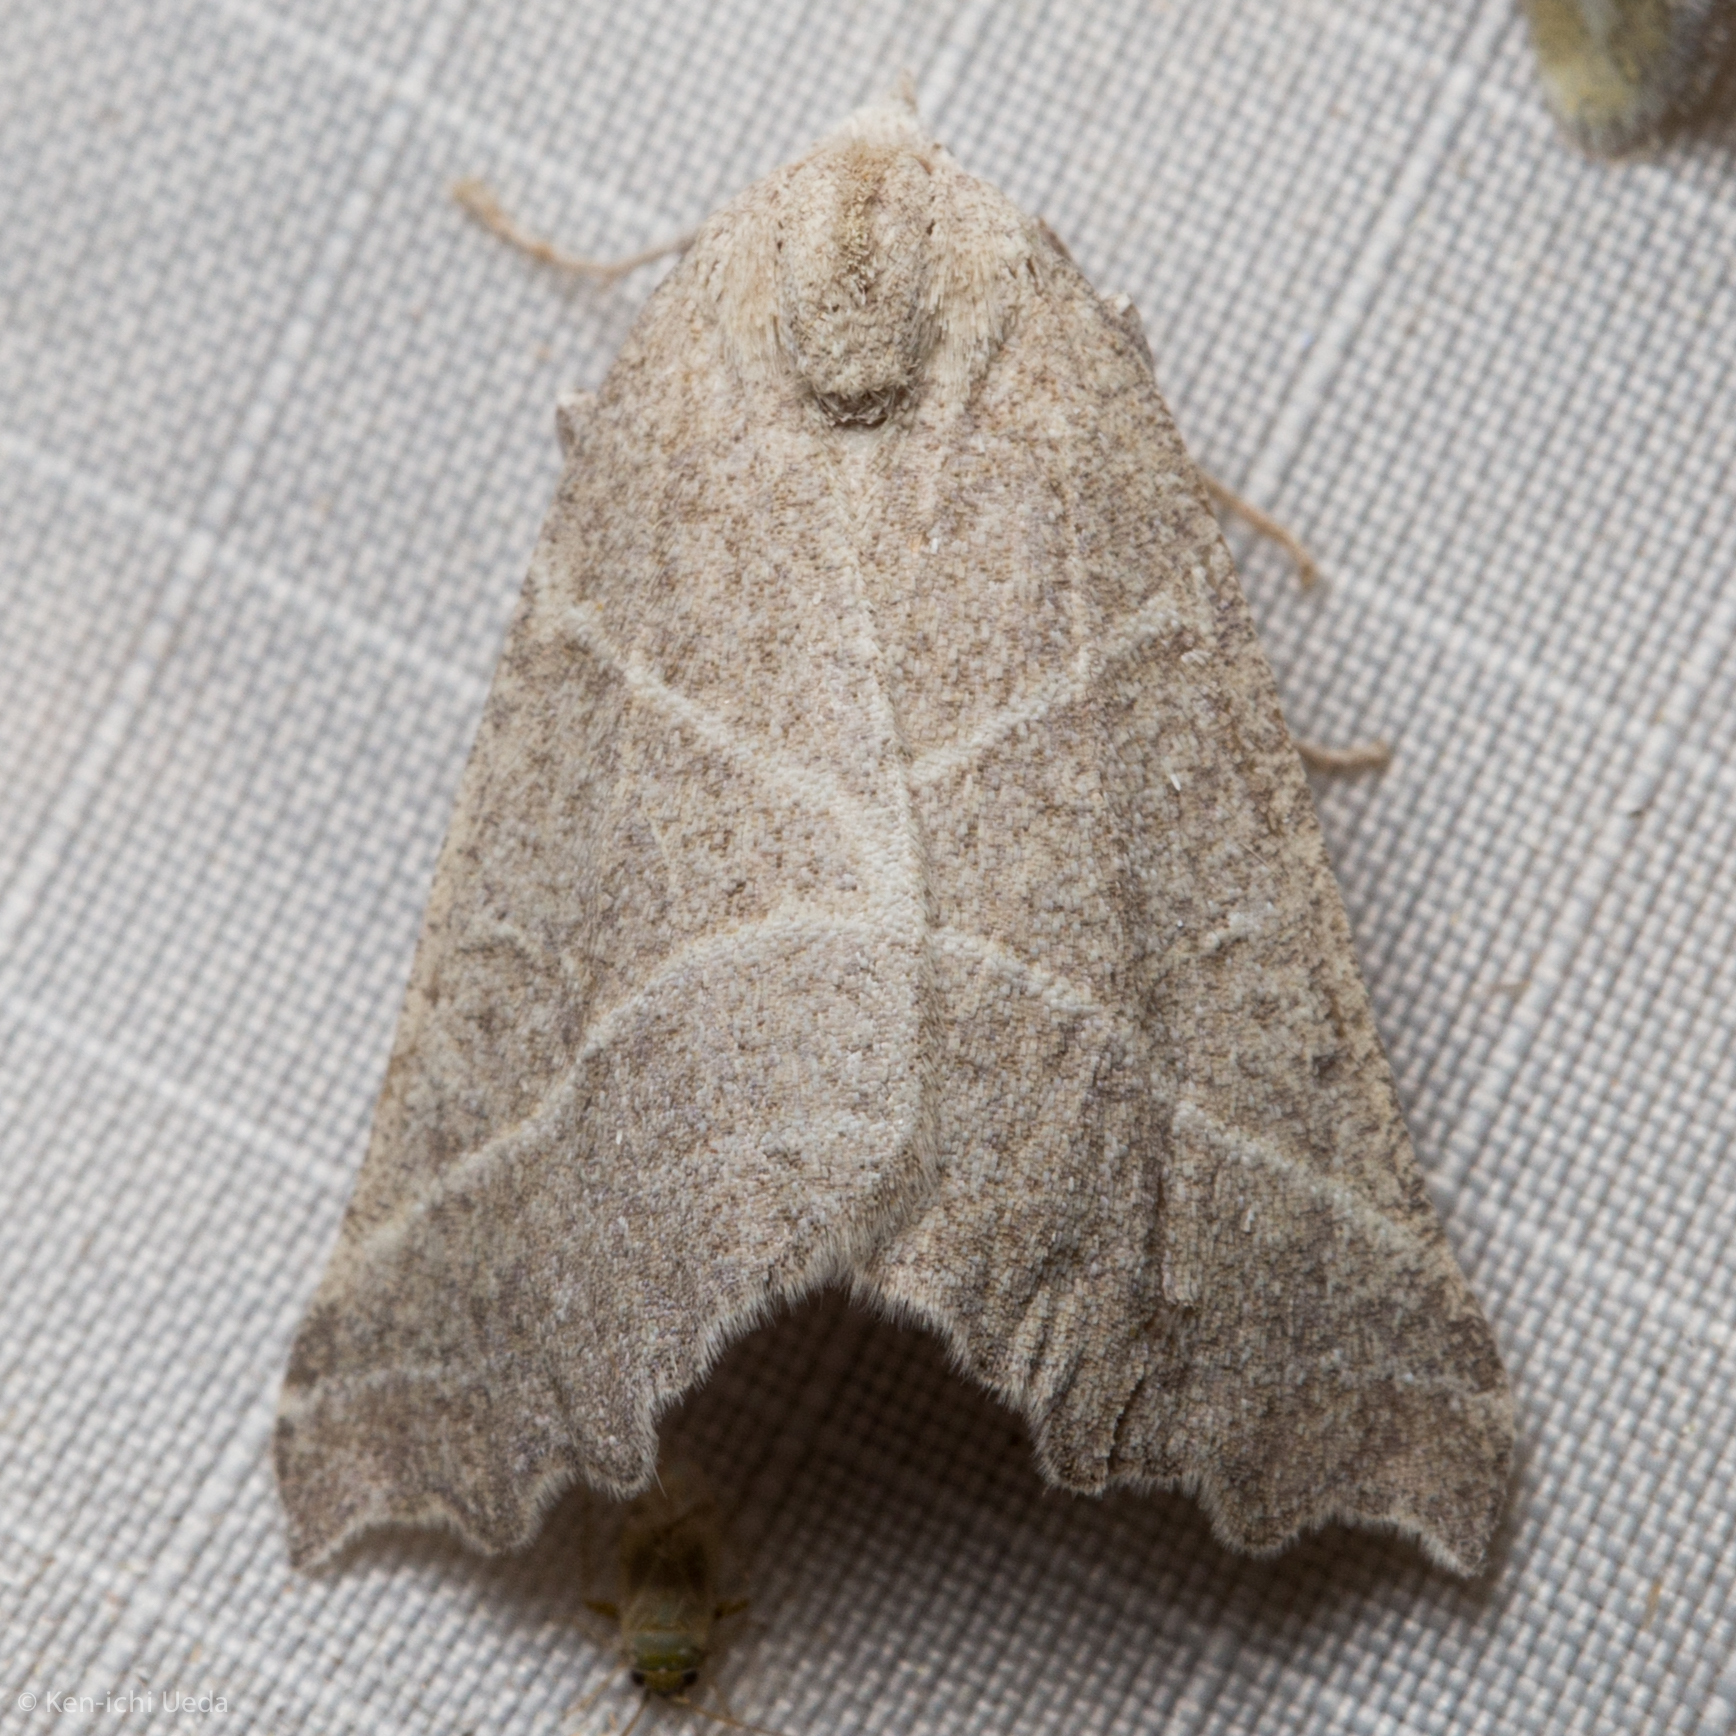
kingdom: Animalia
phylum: Arthropoda
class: Insecta
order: Lepidoptera
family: Geometridae
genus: Plataea
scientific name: Plataea calcaria
